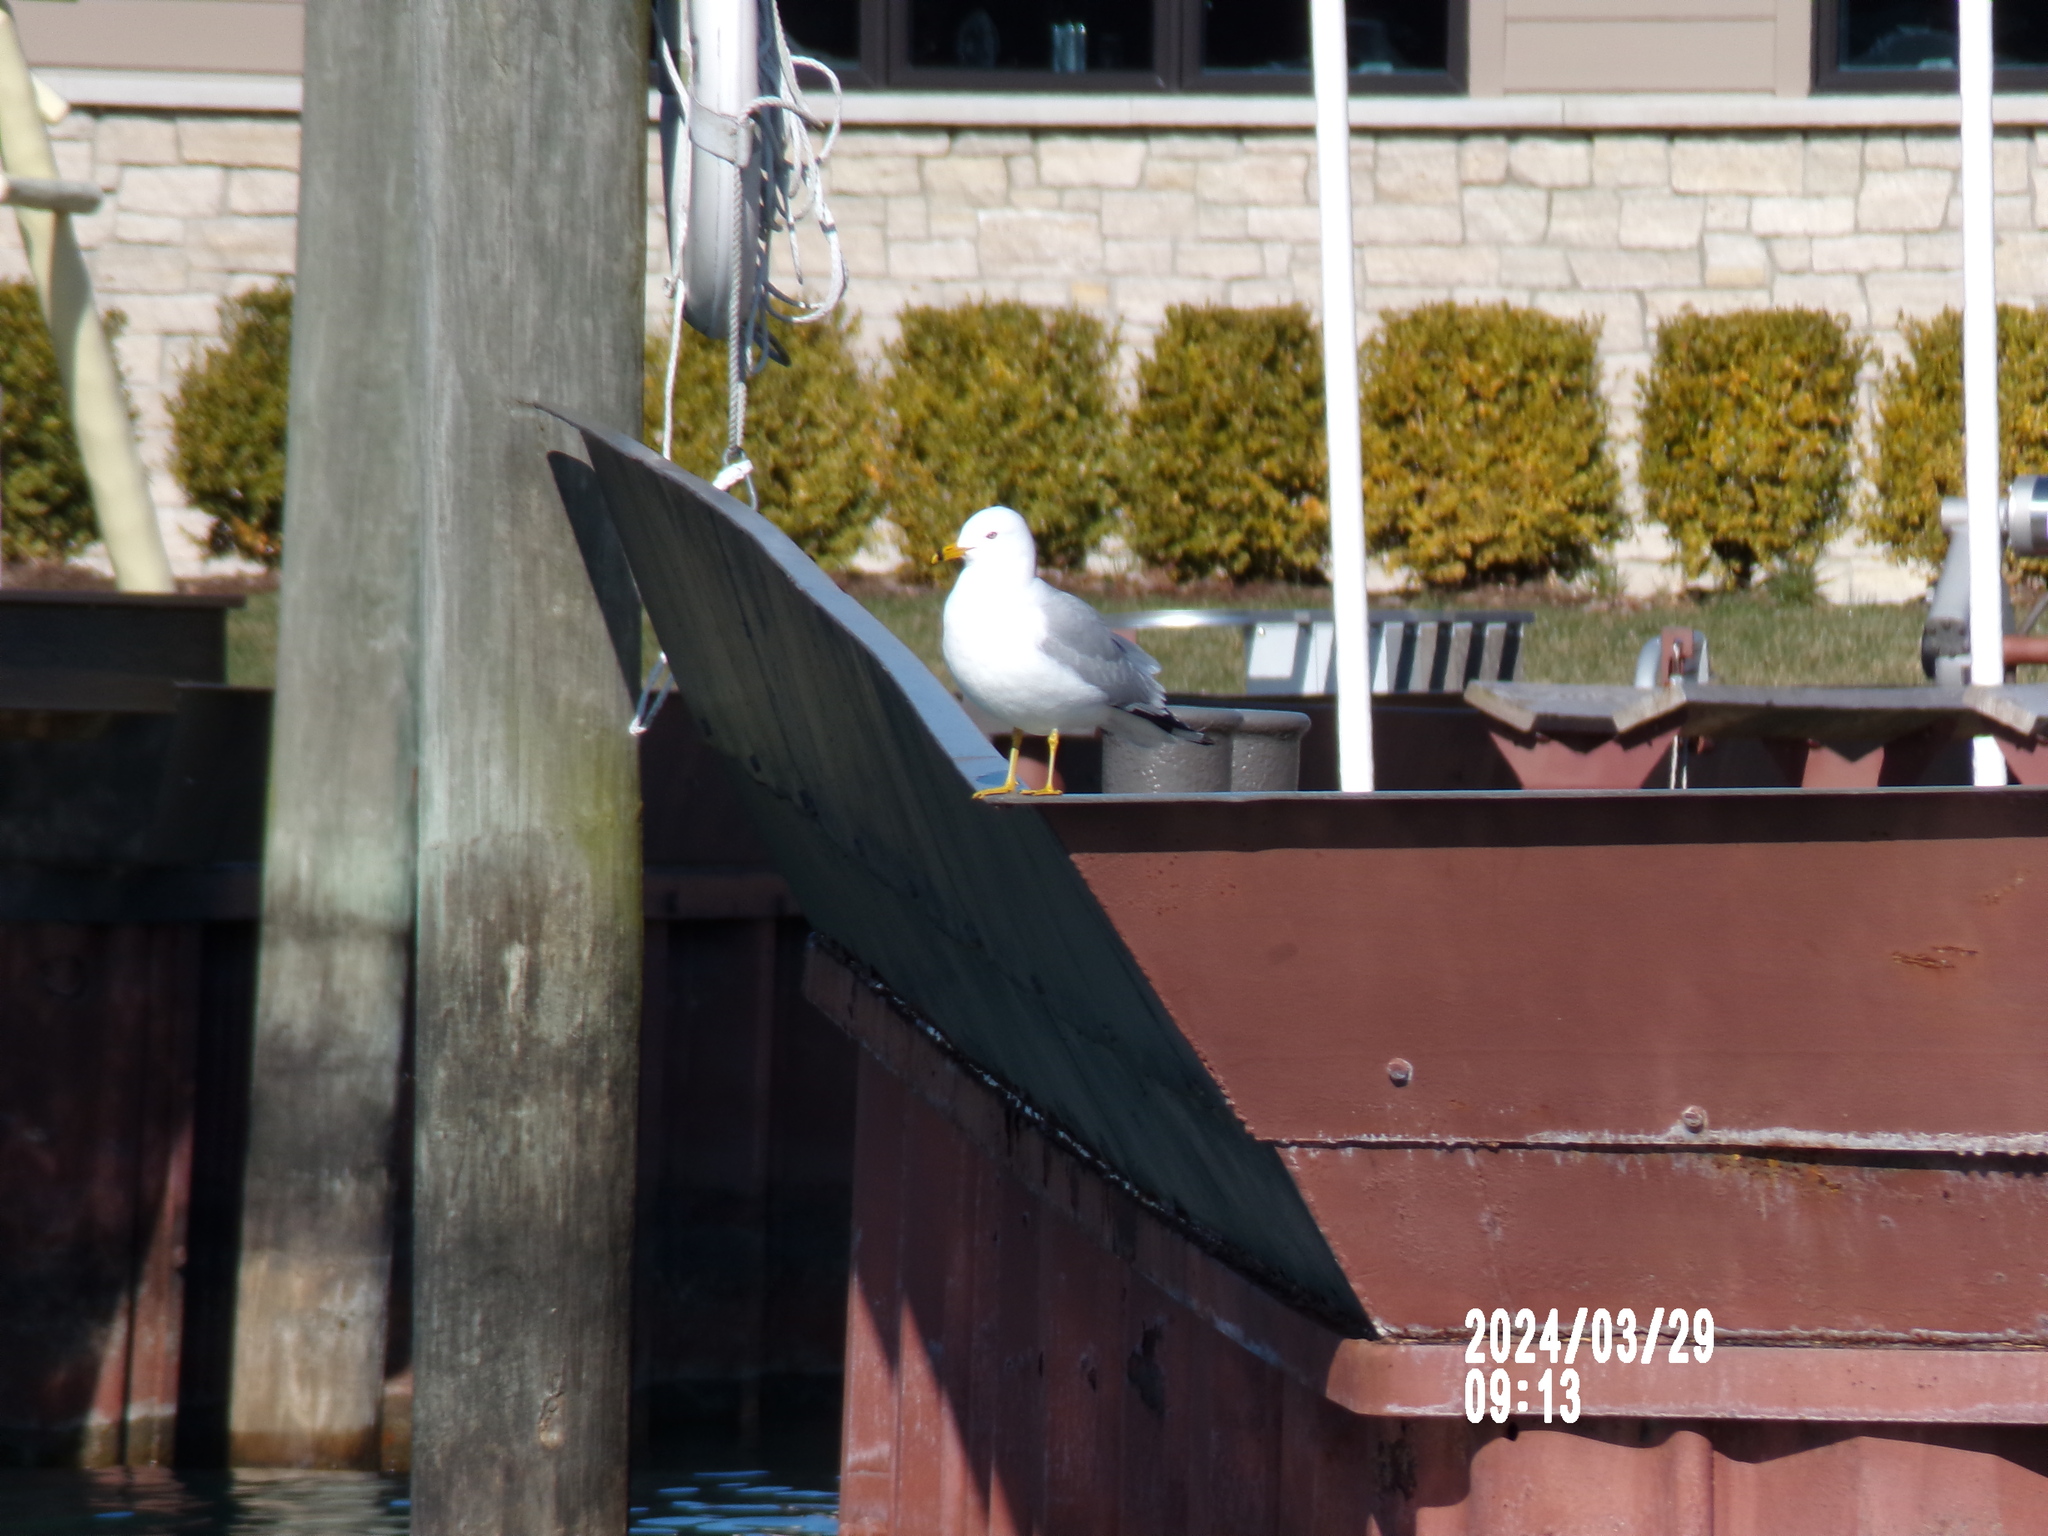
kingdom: Animalia
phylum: Chordata
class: Aves
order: Charadriiformes
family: Laridae
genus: Larus
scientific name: Larus delawarensis
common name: Ring-billed gull
